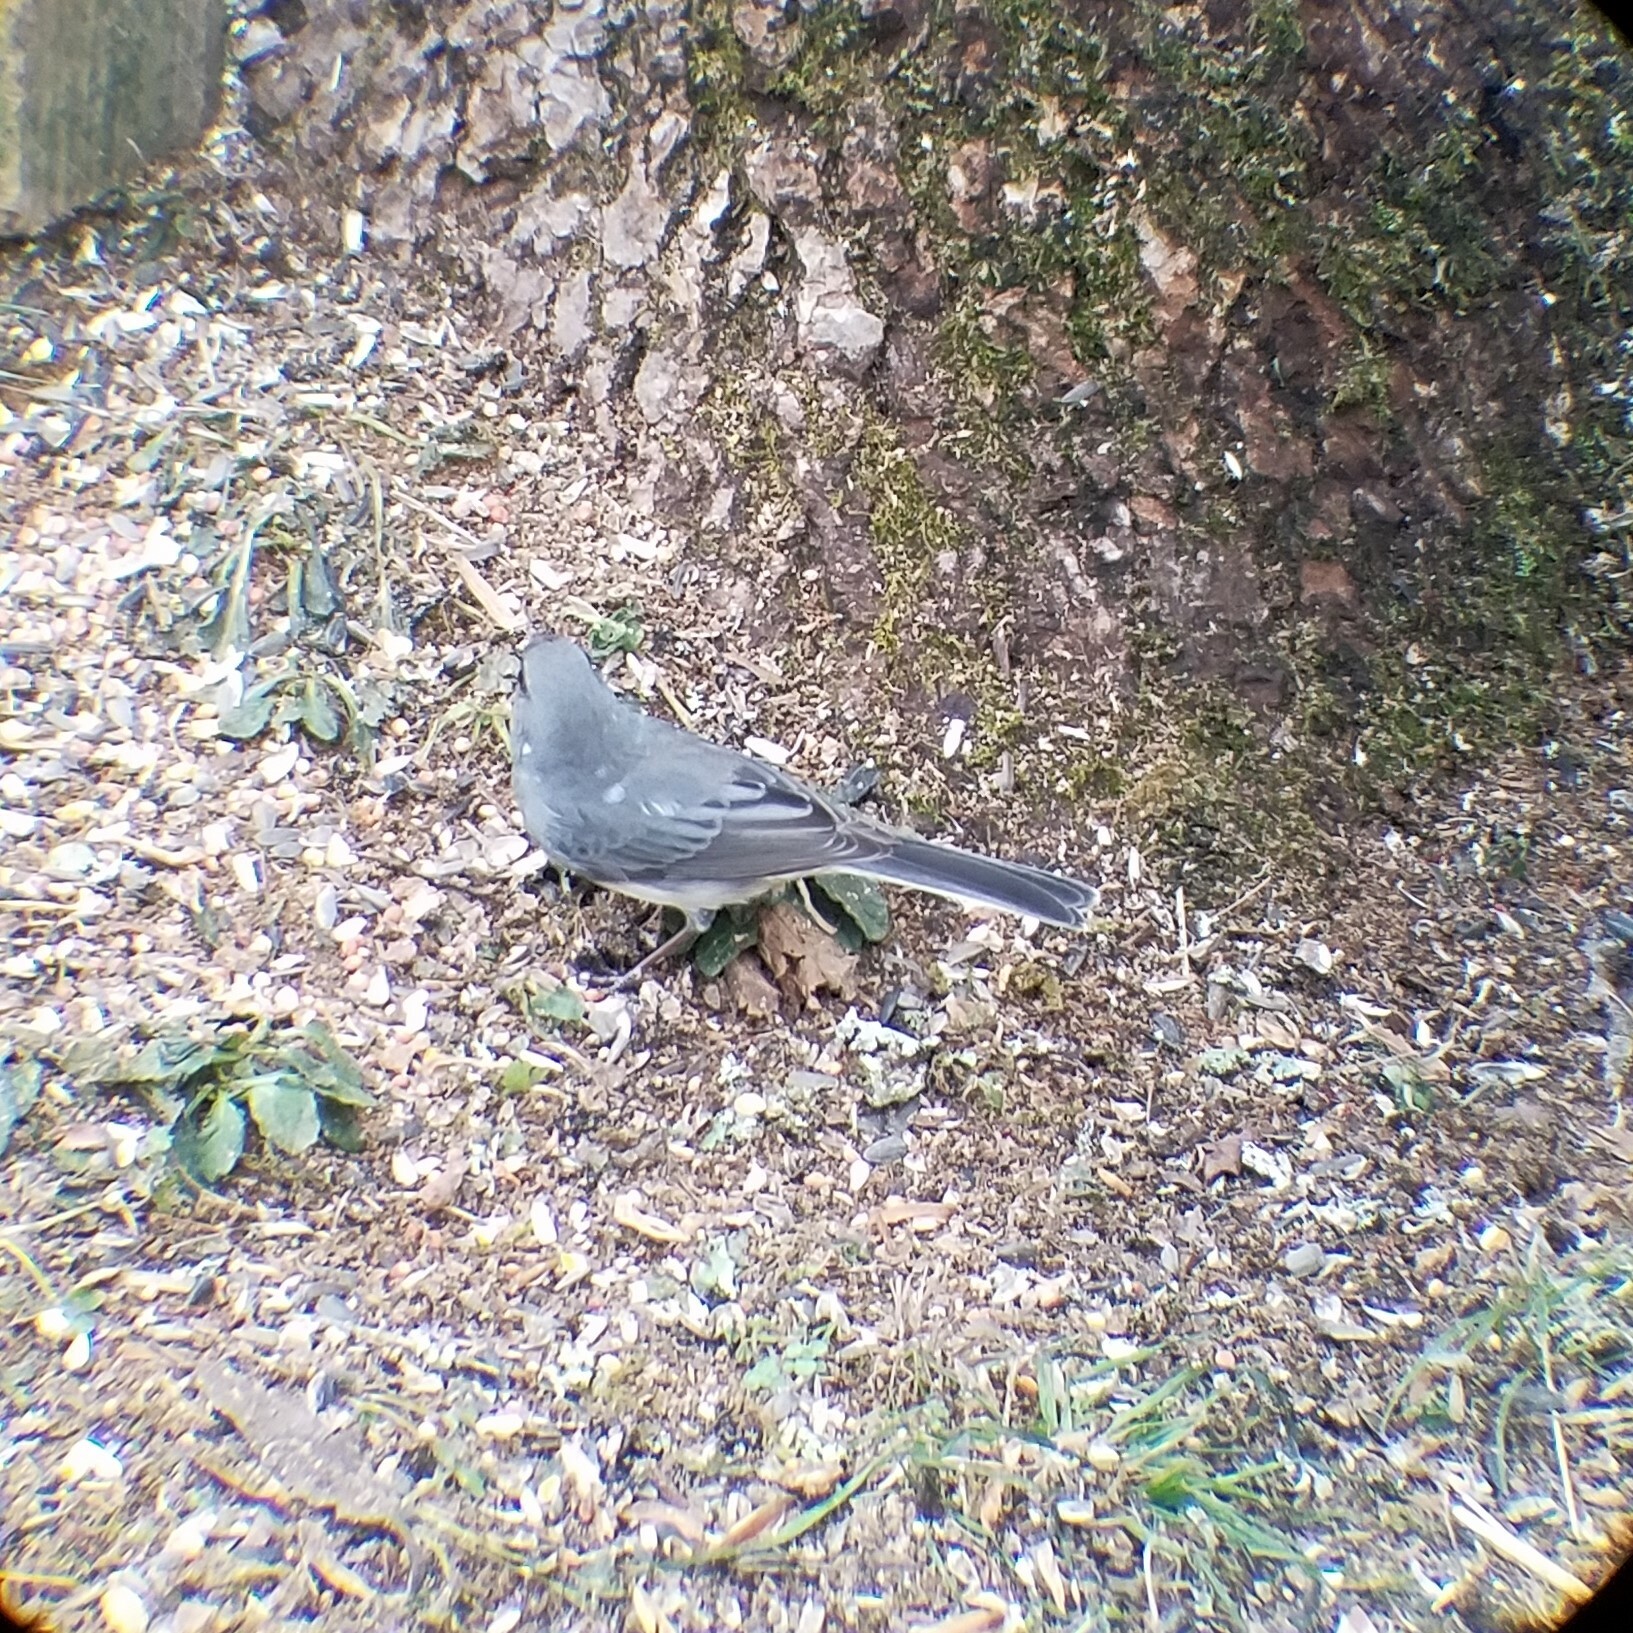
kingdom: Animalia
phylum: Chordata
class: Aves
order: Passeriformes
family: Passerellidae
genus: Junco
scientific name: Junco hyemalis
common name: Dark-eyed junco
